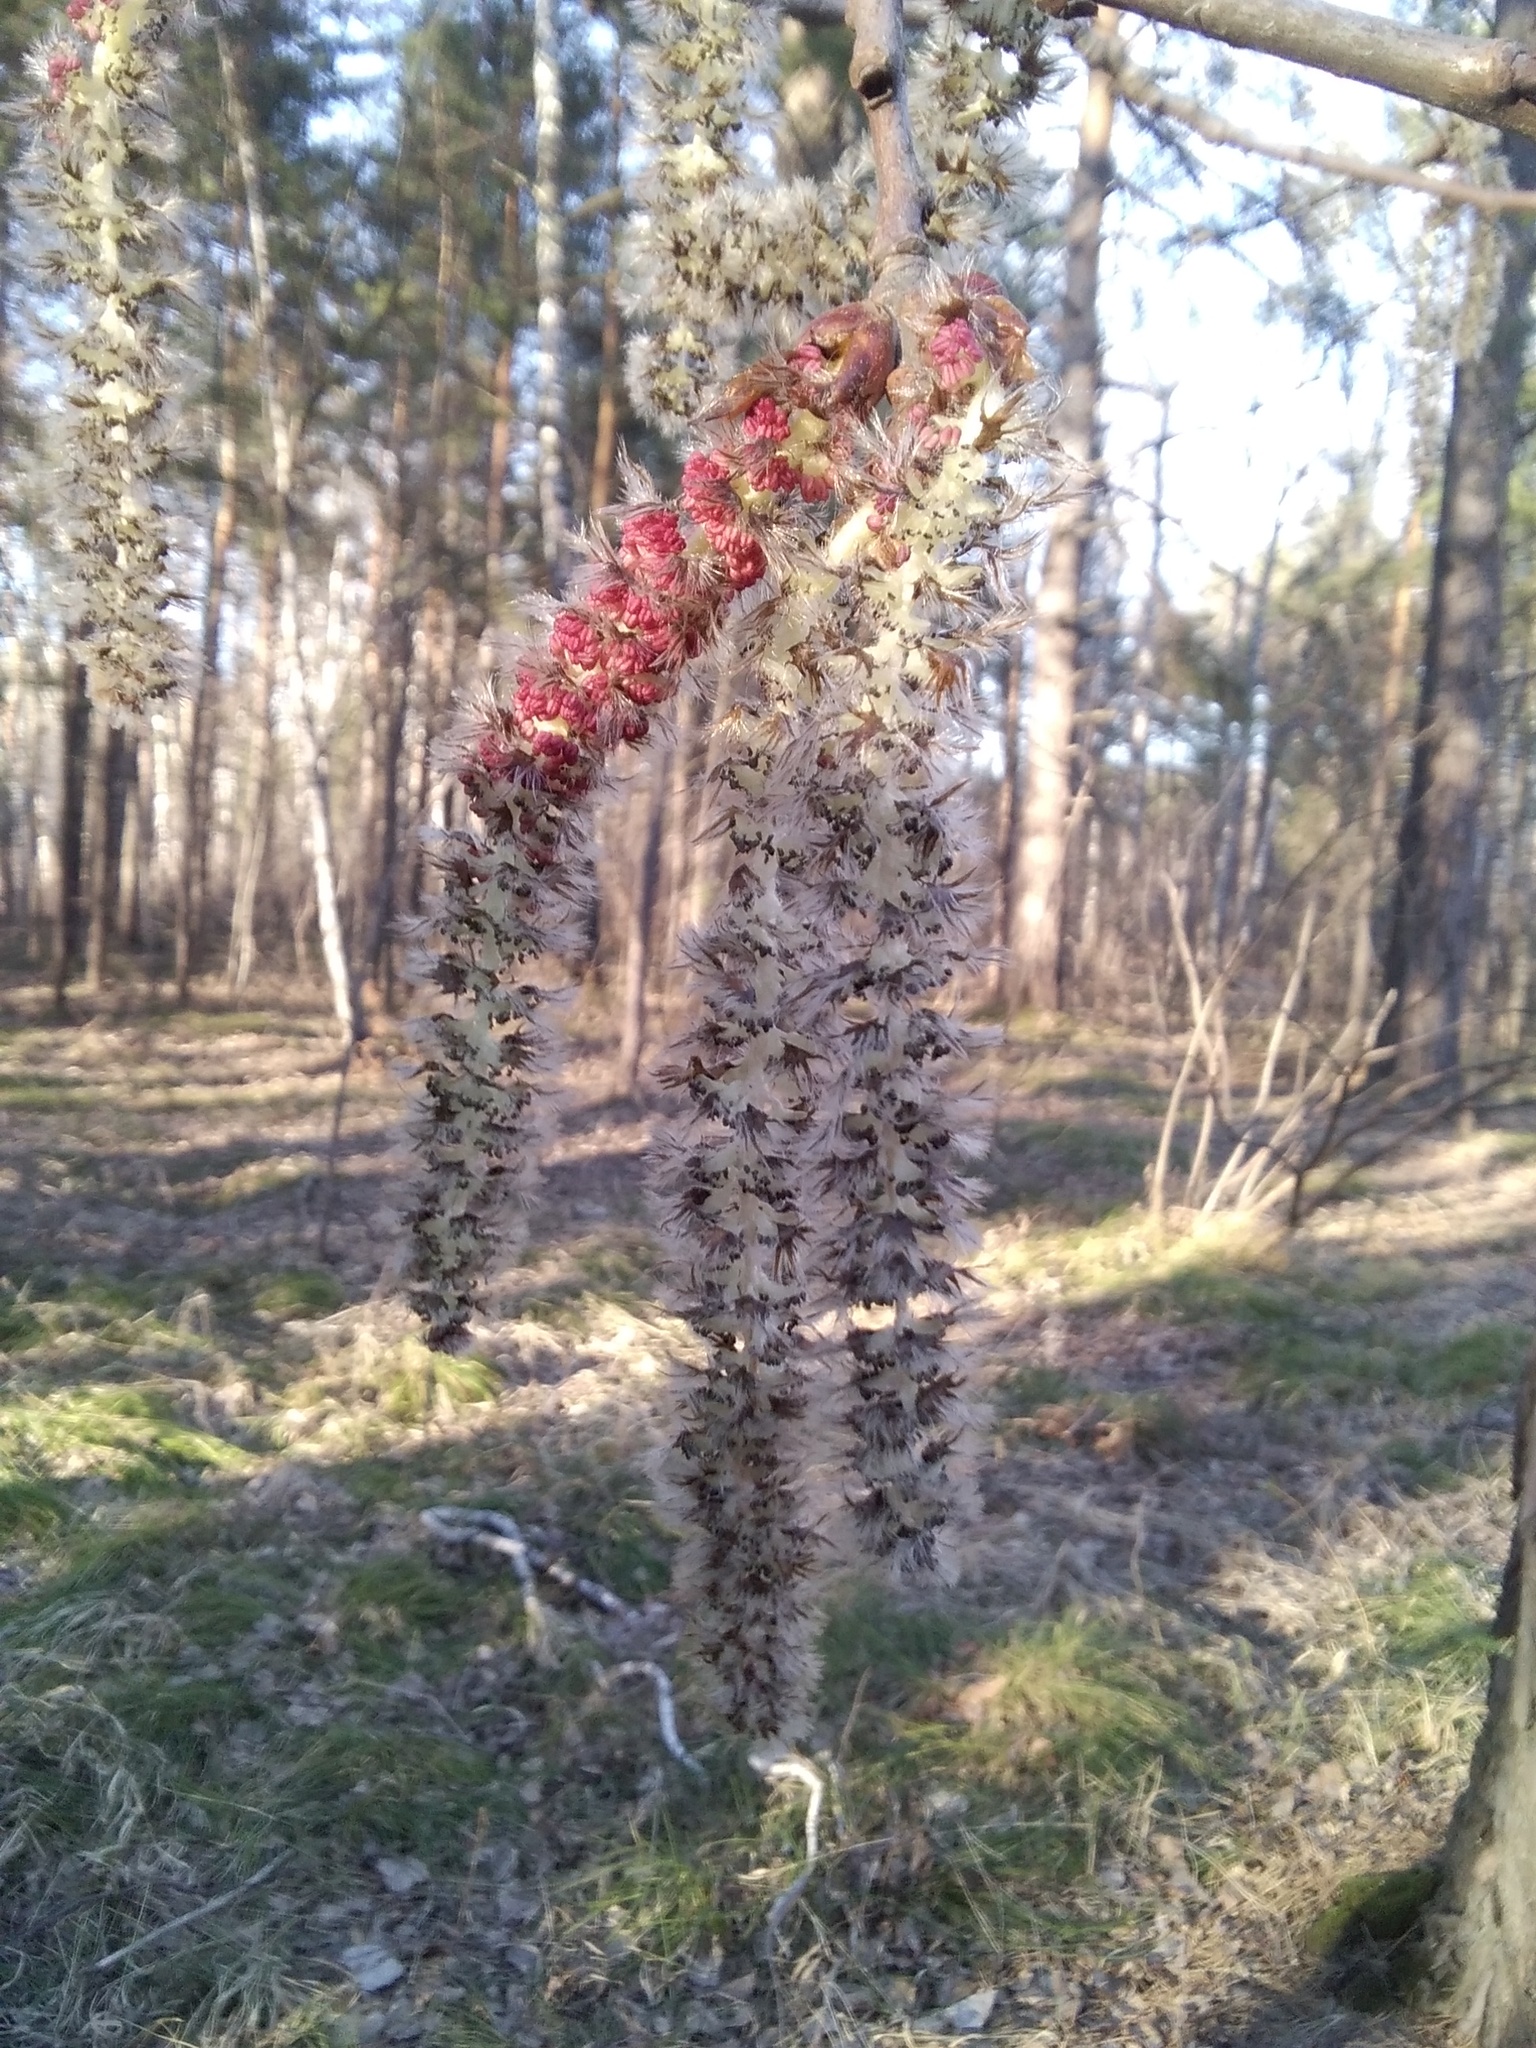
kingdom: Plantae
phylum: Tracheophyta
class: Magnoliopsida
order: Malpighiales
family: Salicaceae
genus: Populus
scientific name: Populus tremula
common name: European aspen
